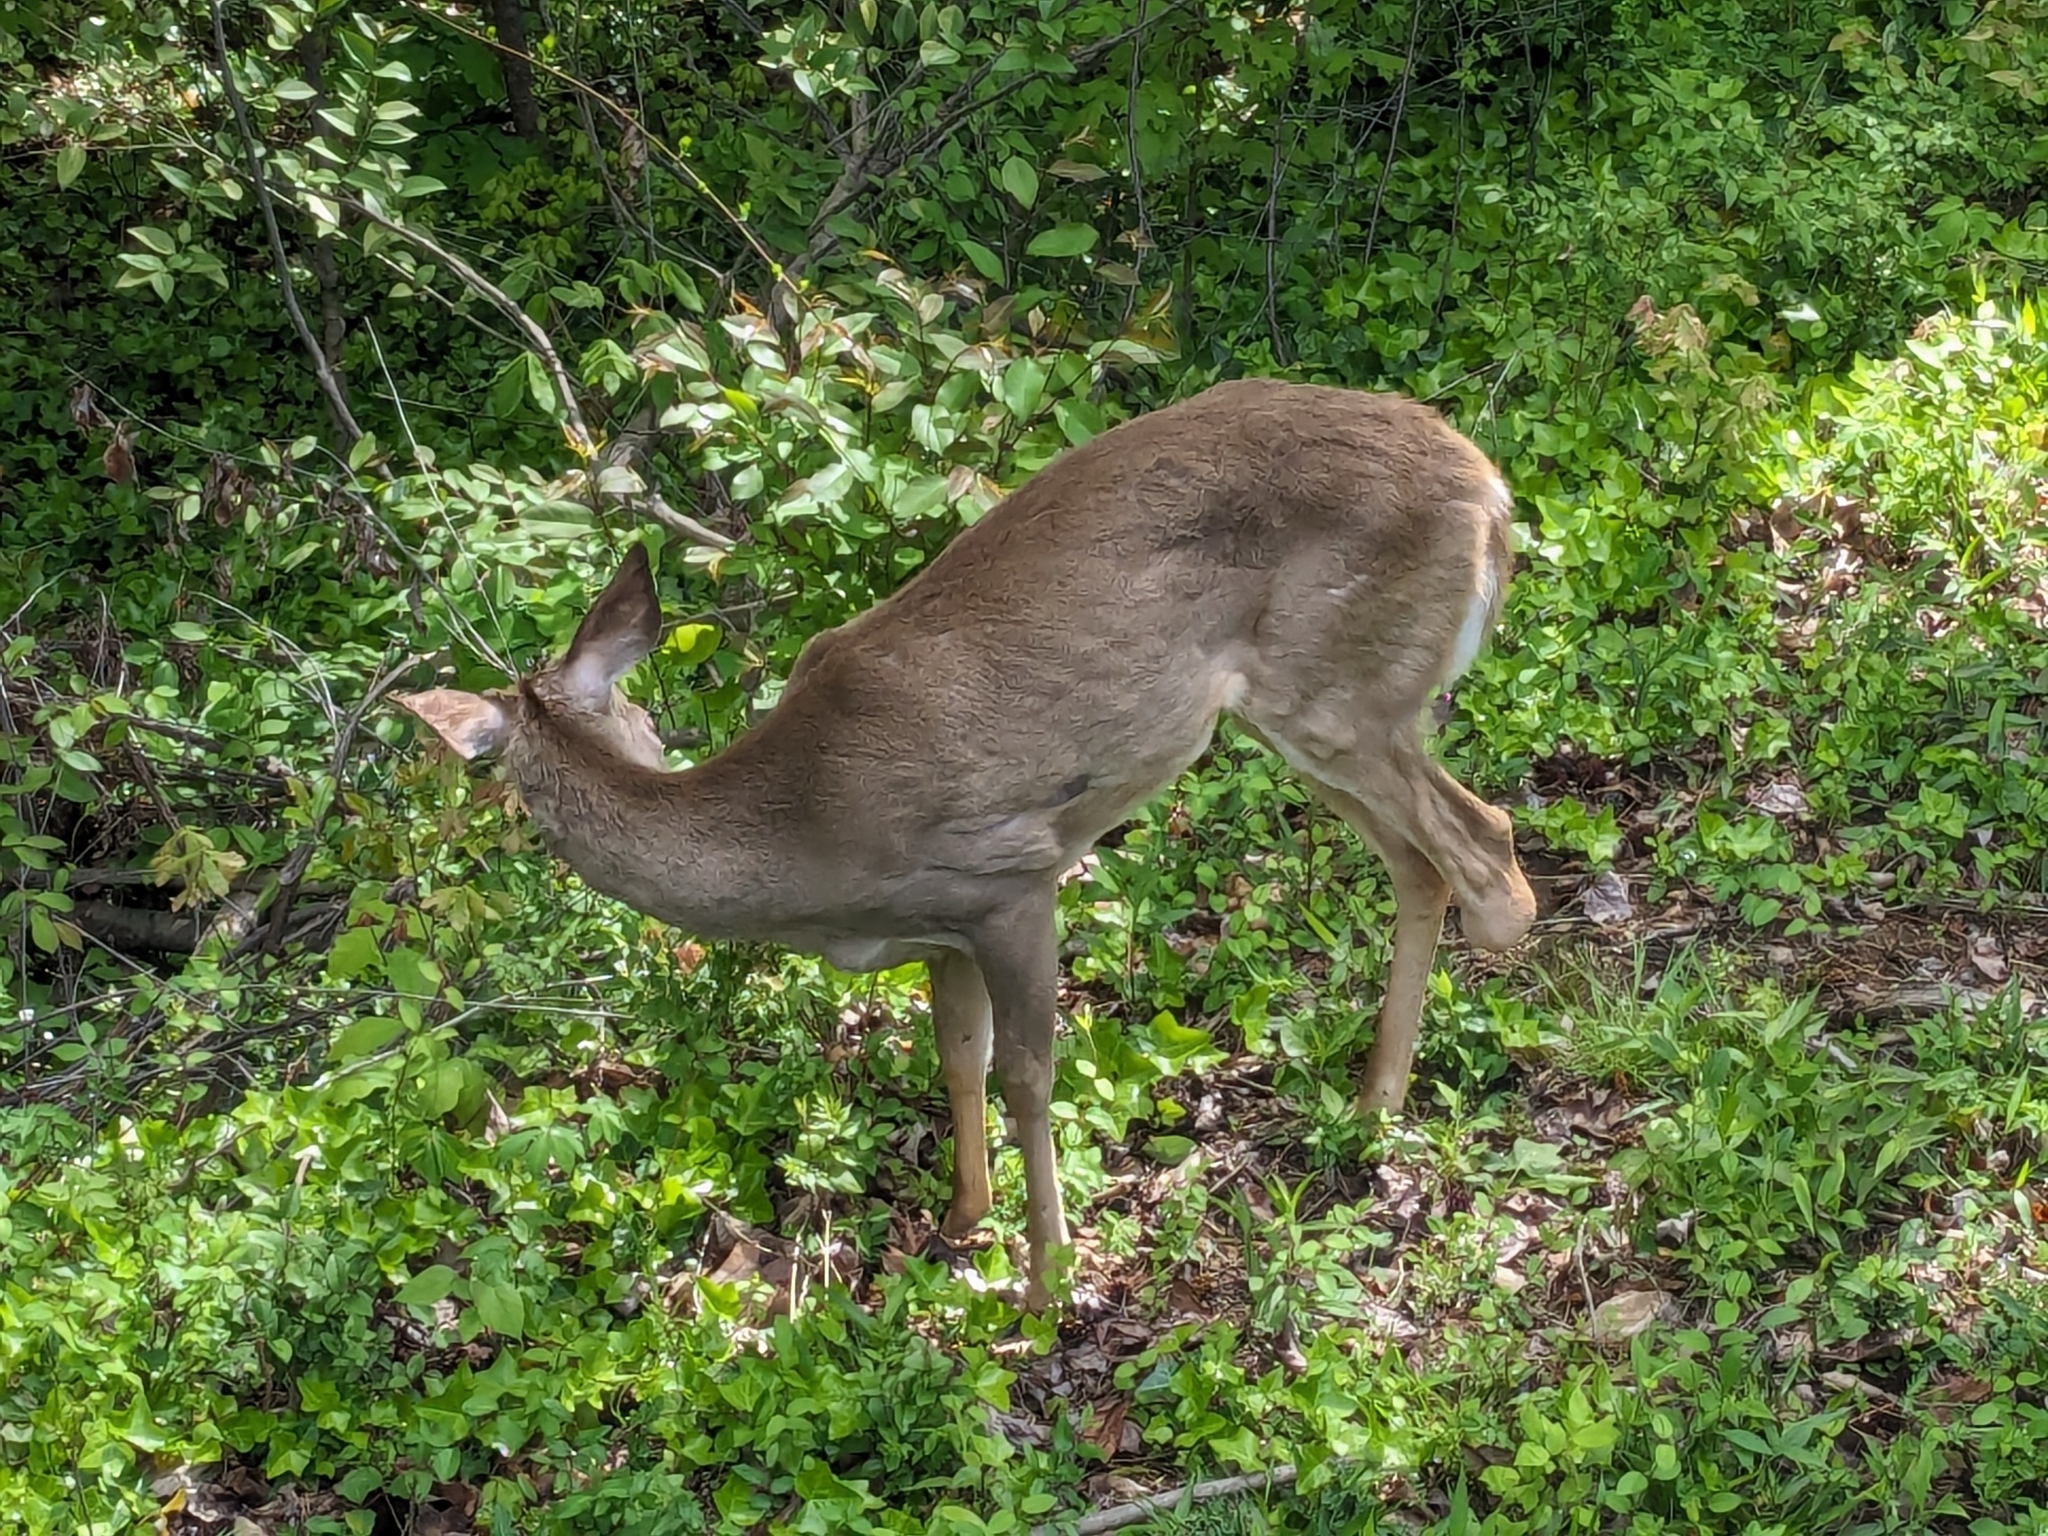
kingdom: Animalia
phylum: Chordata
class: Mammalia
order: Artiodactyla
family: Cervidae
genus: Odocoileus
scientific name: Odocoileus virginianus
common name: White-tailed deer
